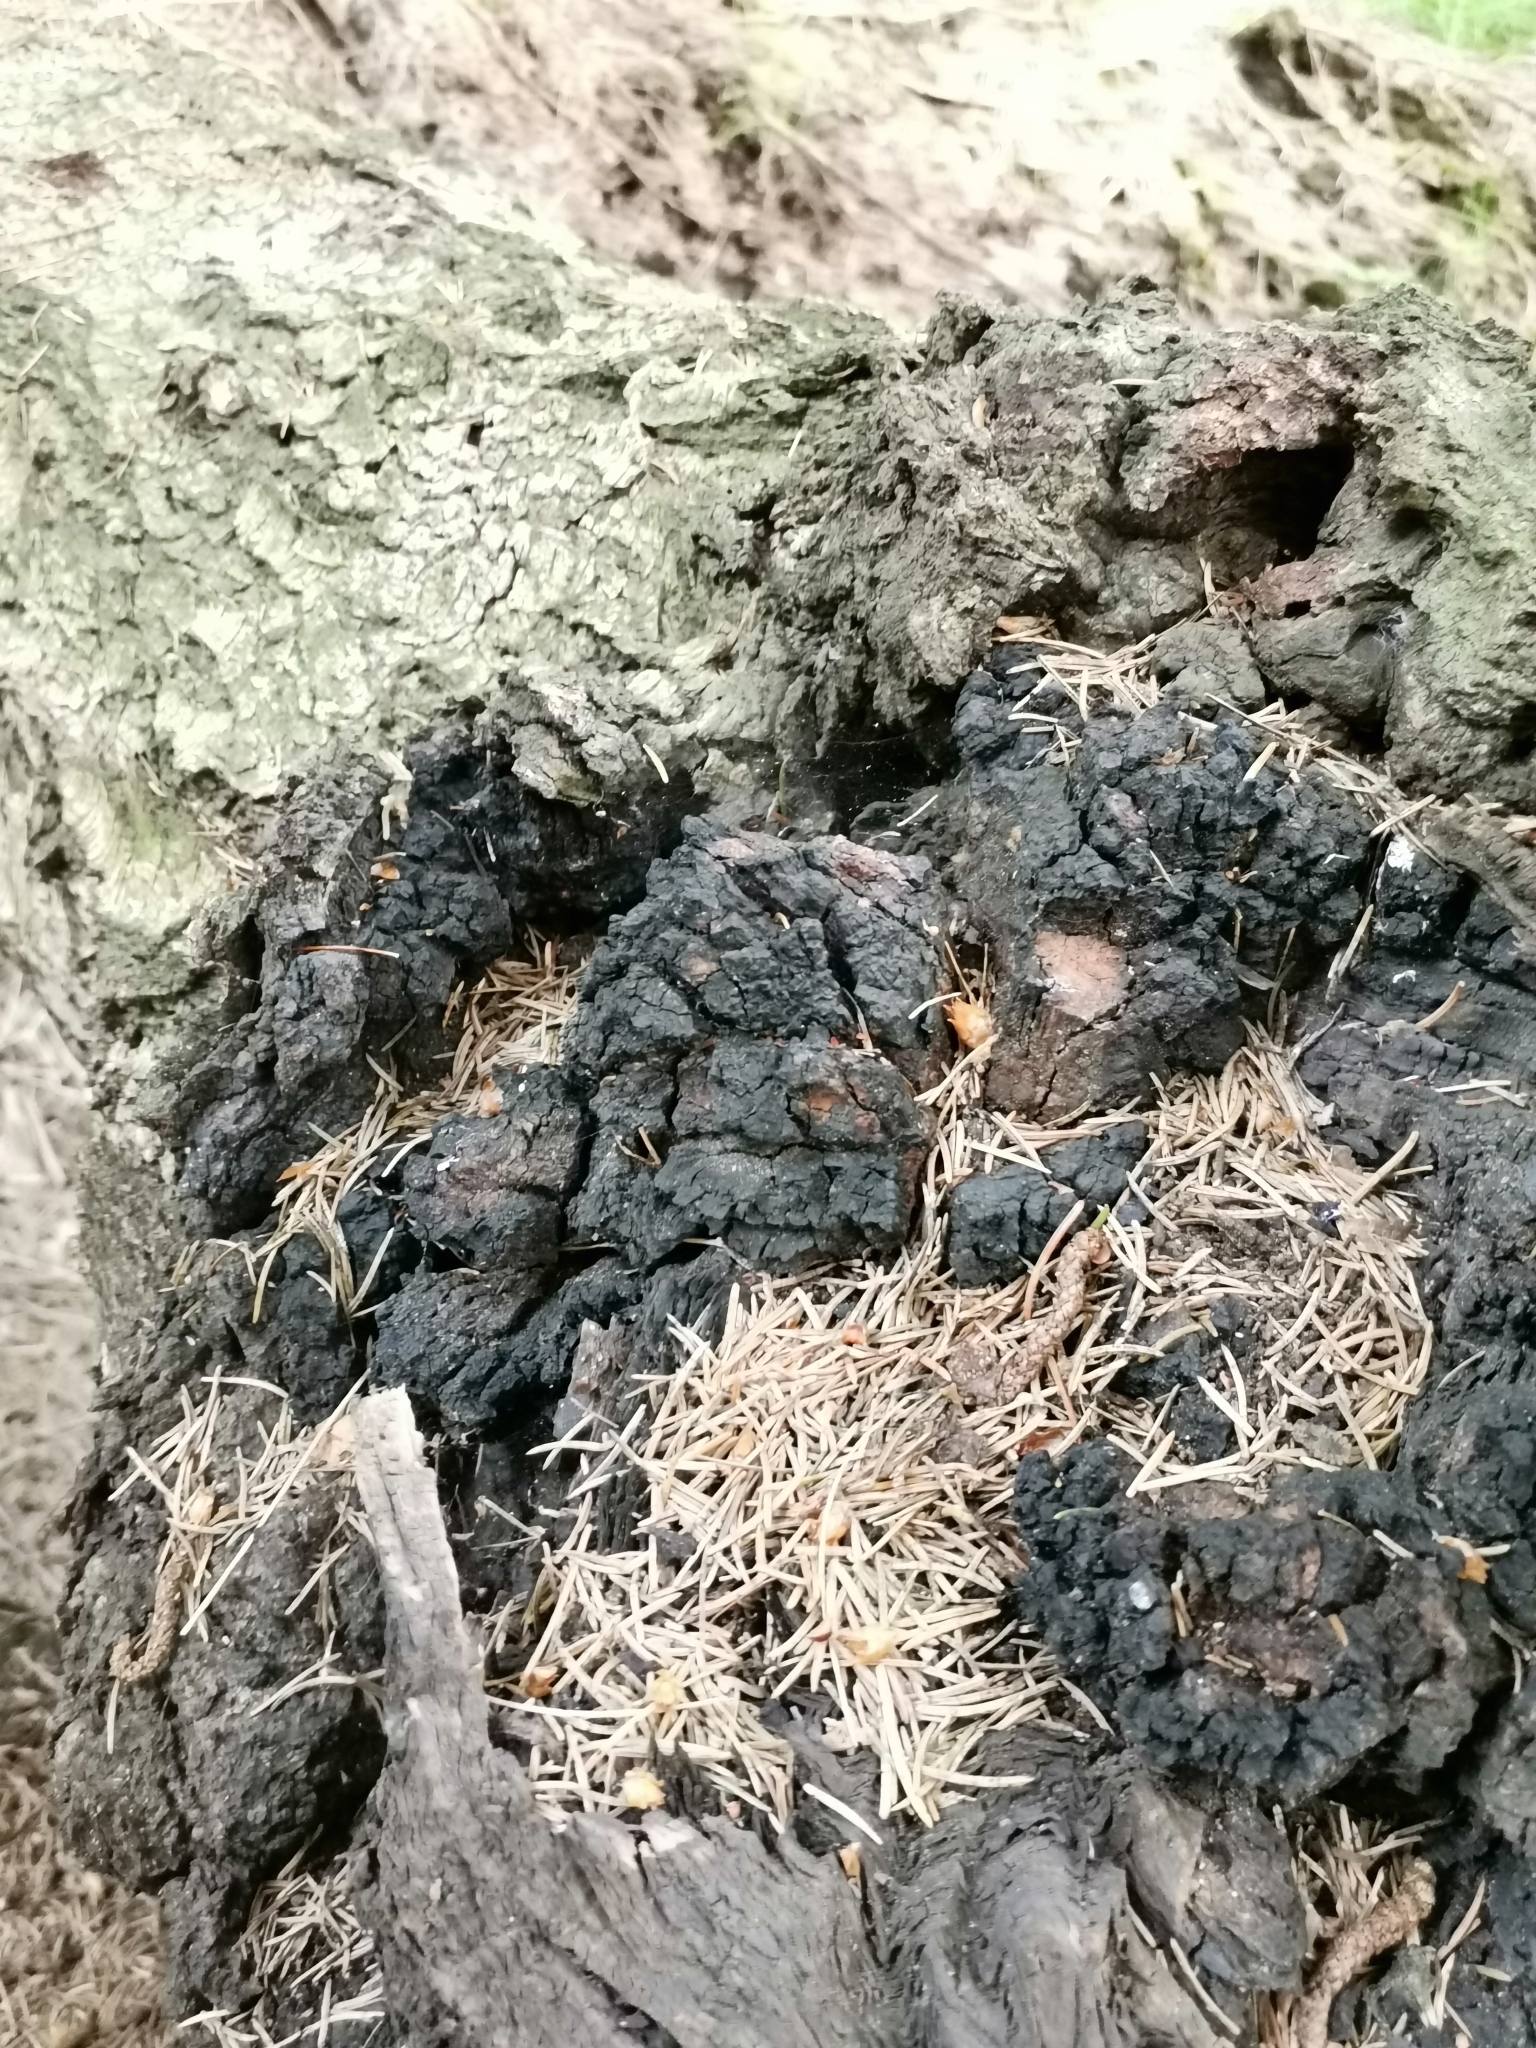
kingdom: Fungi
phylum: Basidiomycota
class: Agaricomycetes
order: Hymenochaetales
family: Hymenochaetaceae
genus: Inonotus
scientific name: Inonotus obliquus
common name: Chaga
